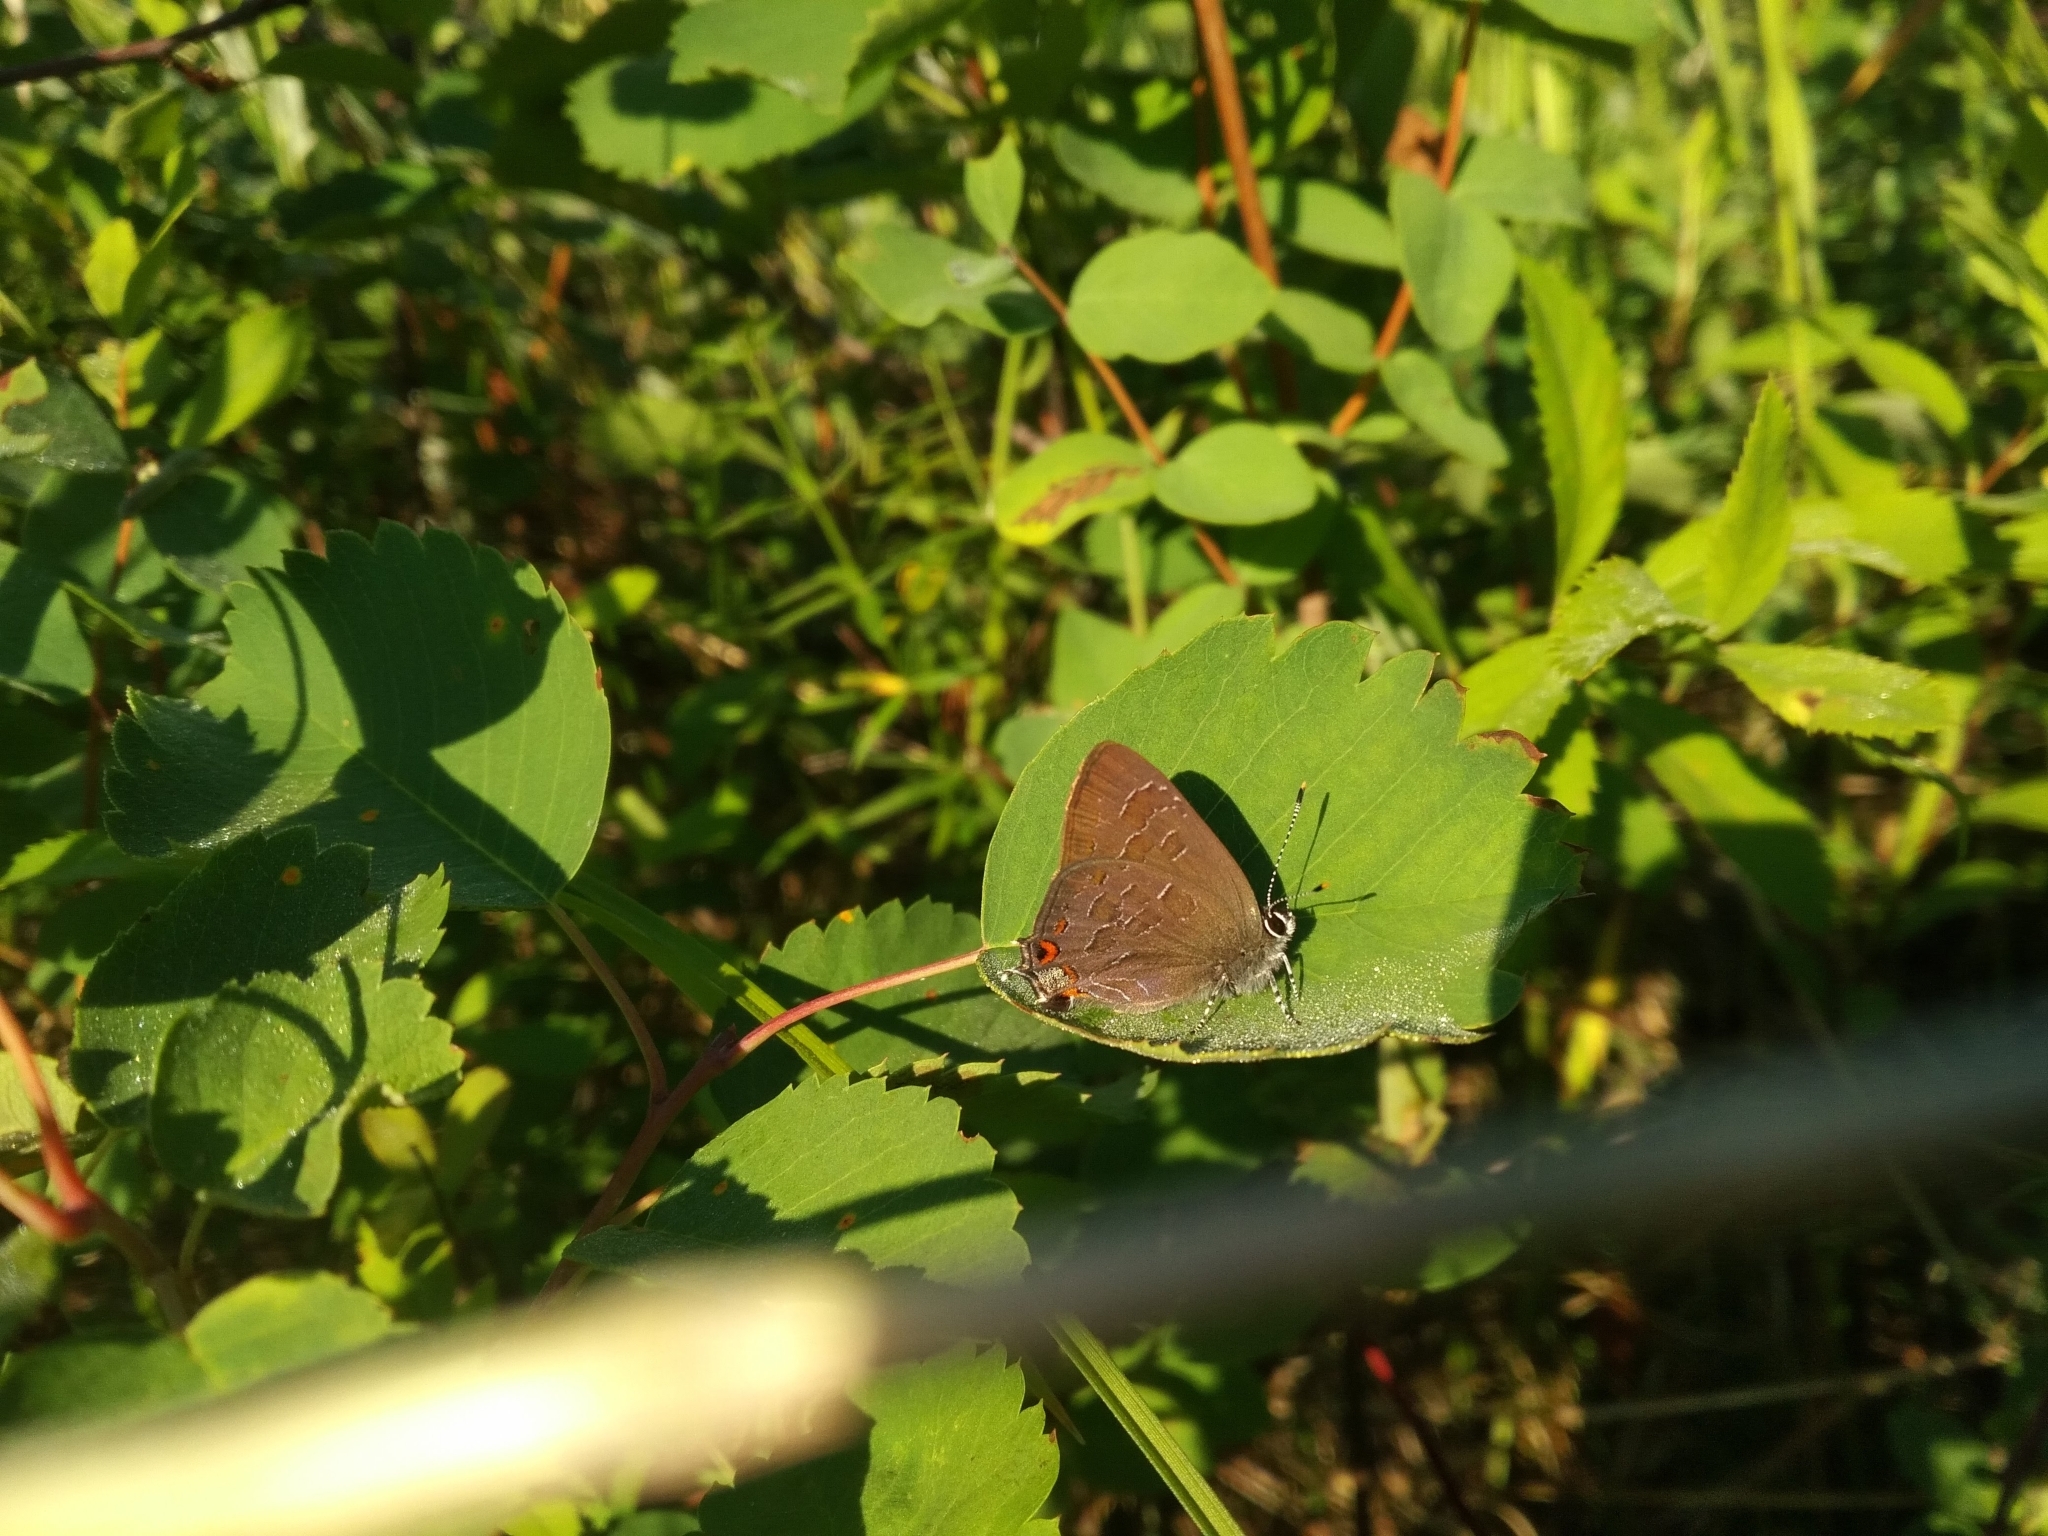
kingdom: Animalia
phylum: Arthropoda
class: Insecta
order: Lepidoptera
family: Lycaenidae
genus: Satyrium
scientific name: Satyrium liparops
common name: Striped hairstreak
